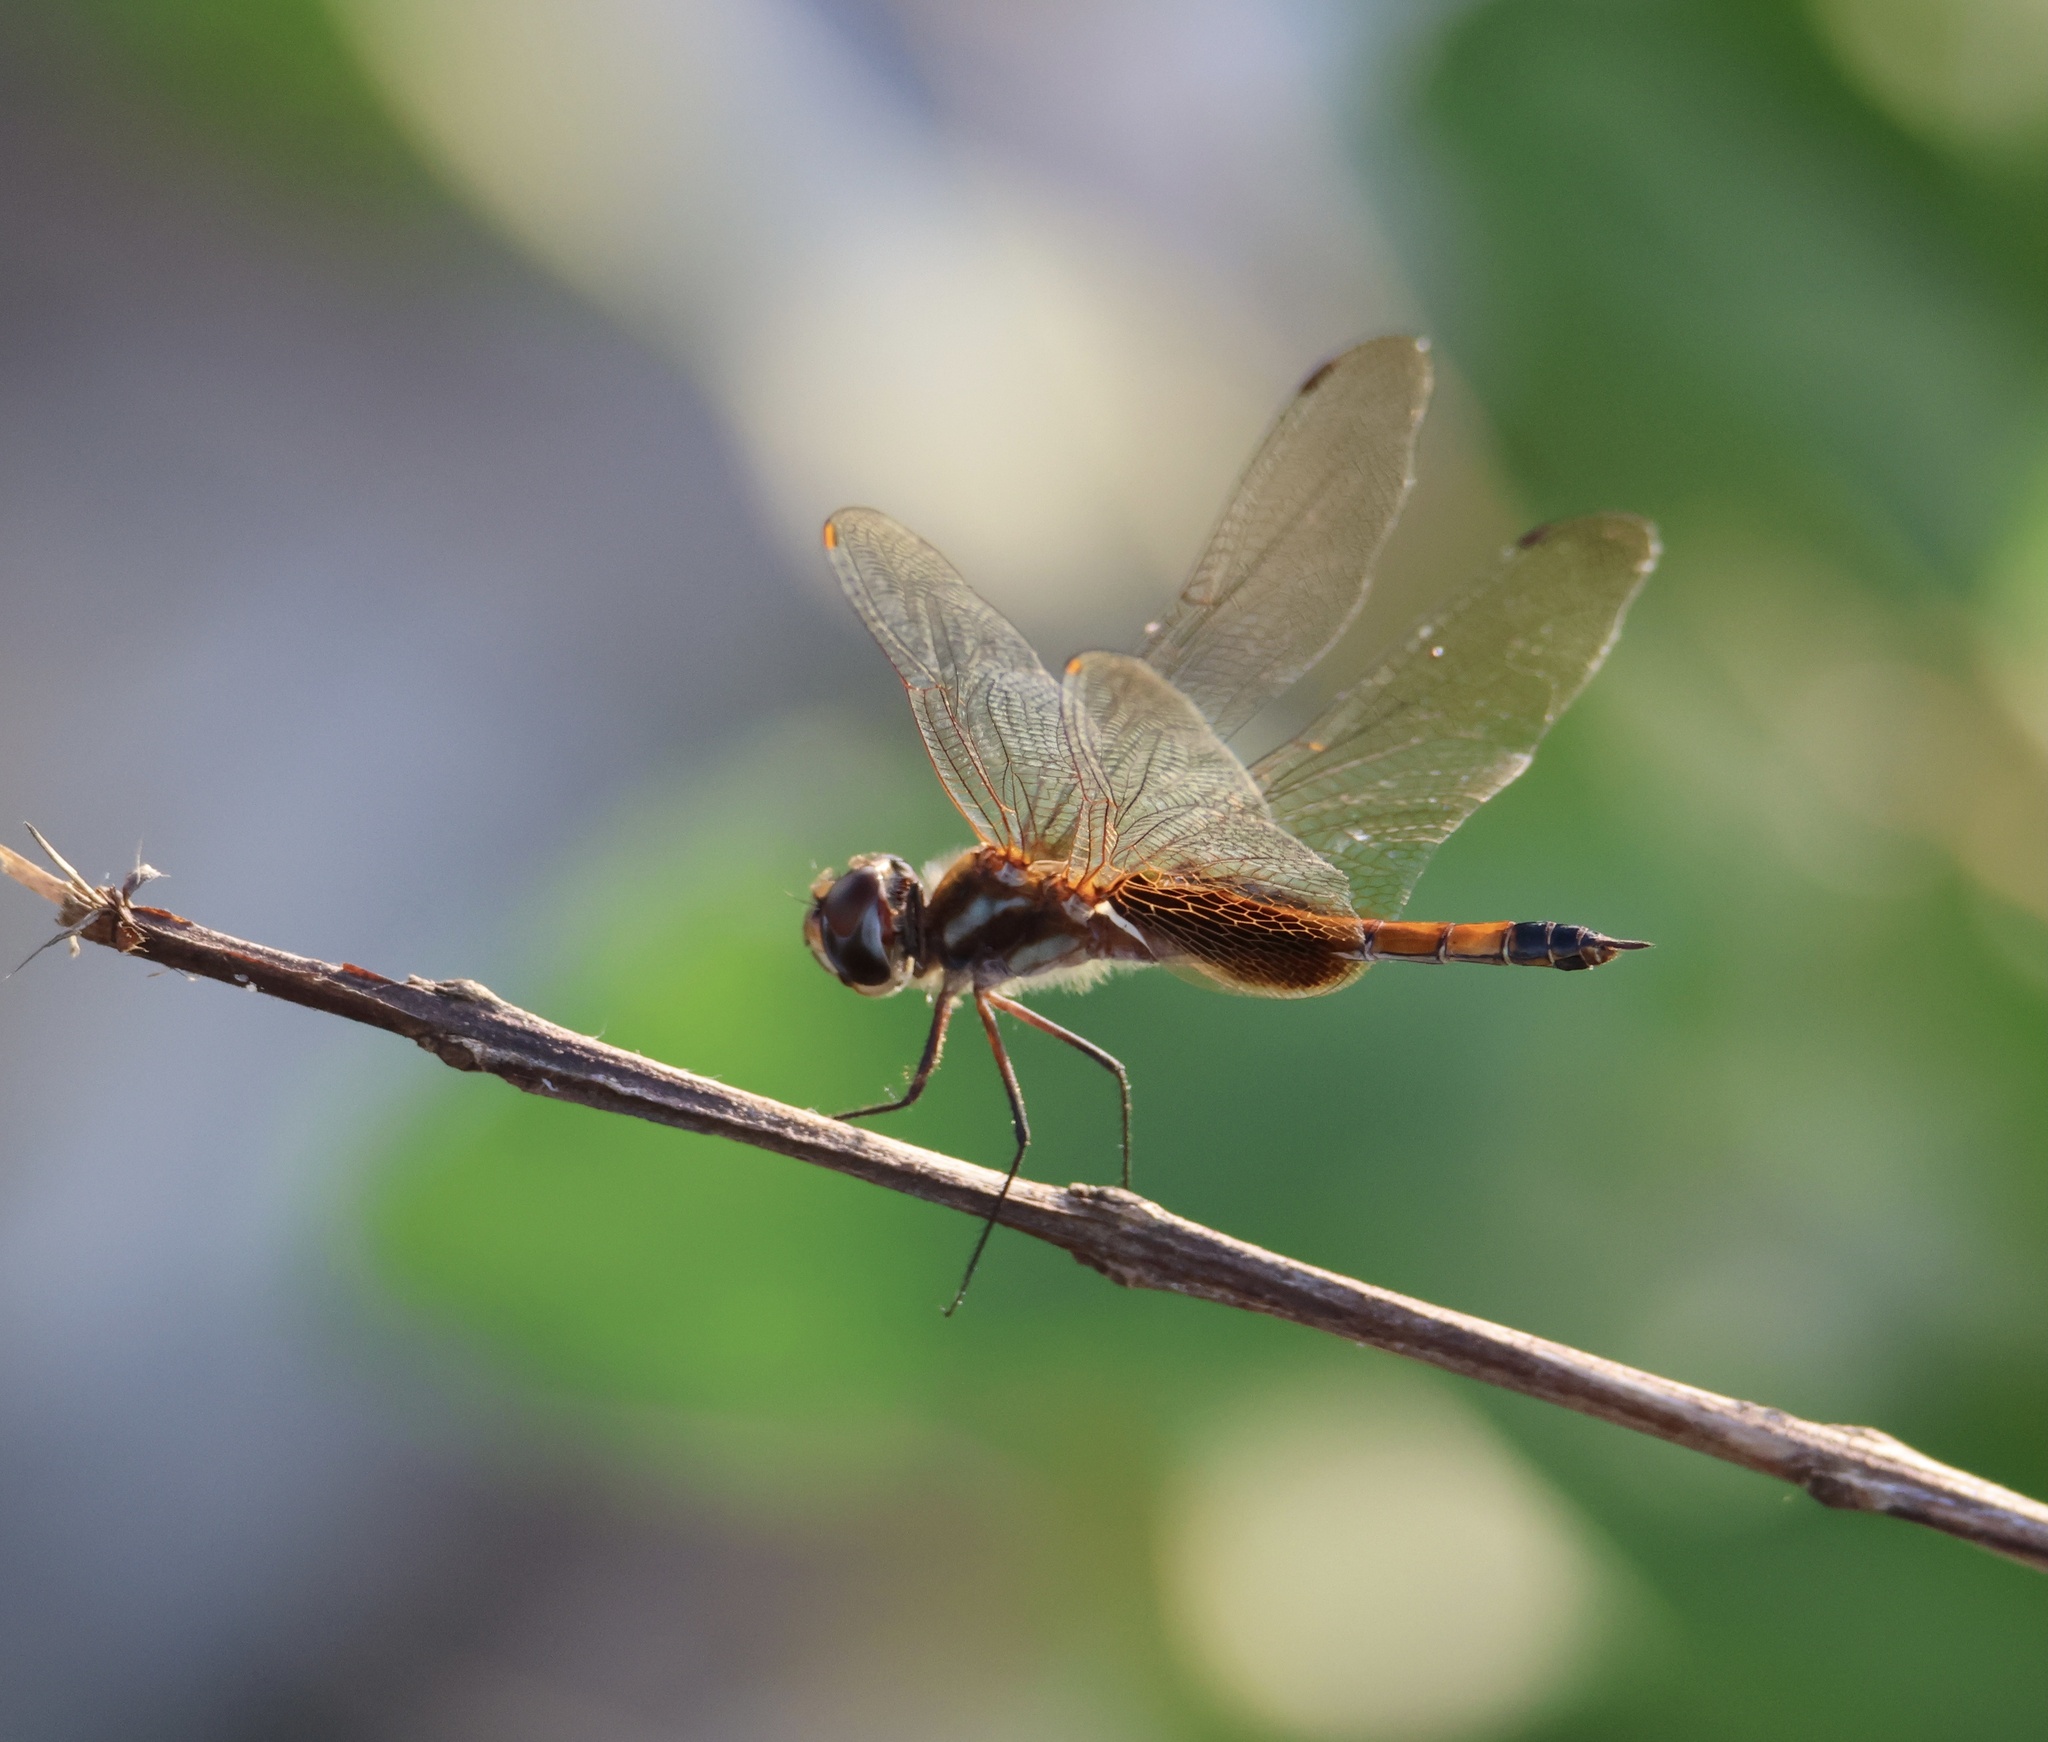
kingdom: Animalia
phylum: Arthropoda
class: Insecta
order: Odonata
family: Libellulidae
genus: Tramea
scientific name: Tramea darwini
